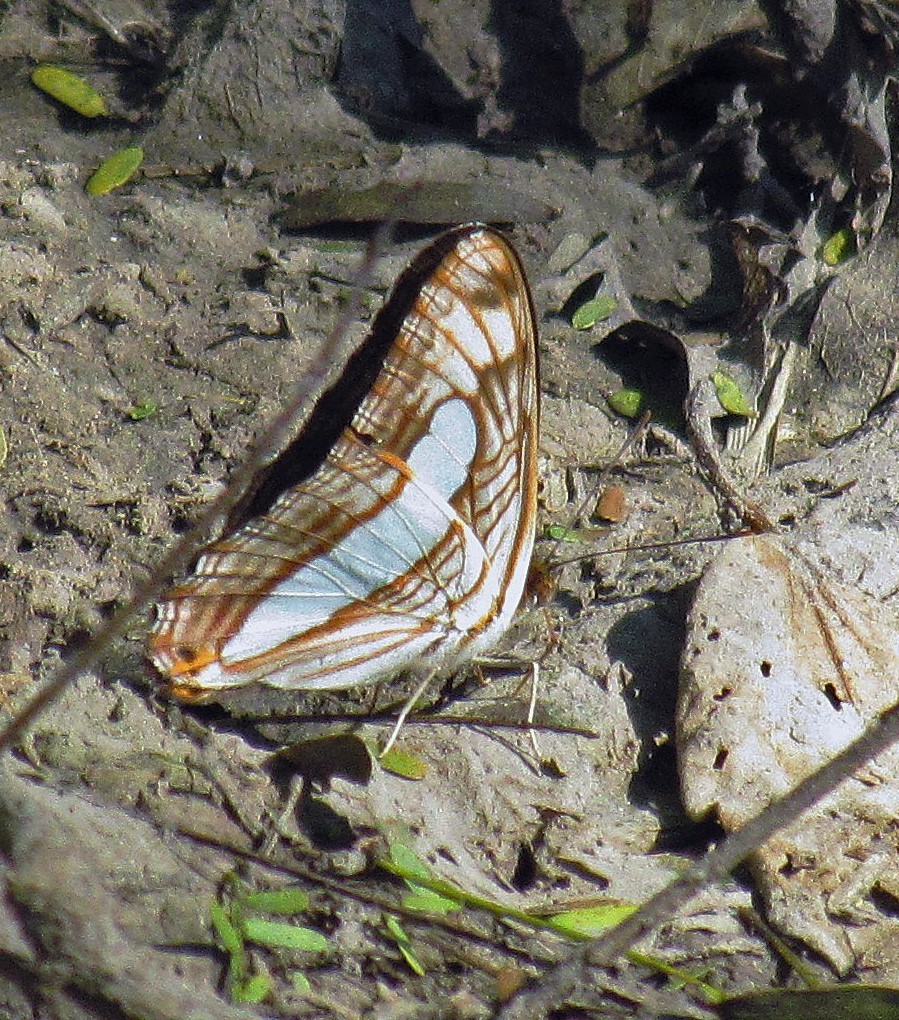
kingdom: Animalia
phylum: Arthropoda
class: Insecta
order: Lepidoptera
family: Nymphalidae
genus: Limenitis
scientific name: Limenitis iphiclus
